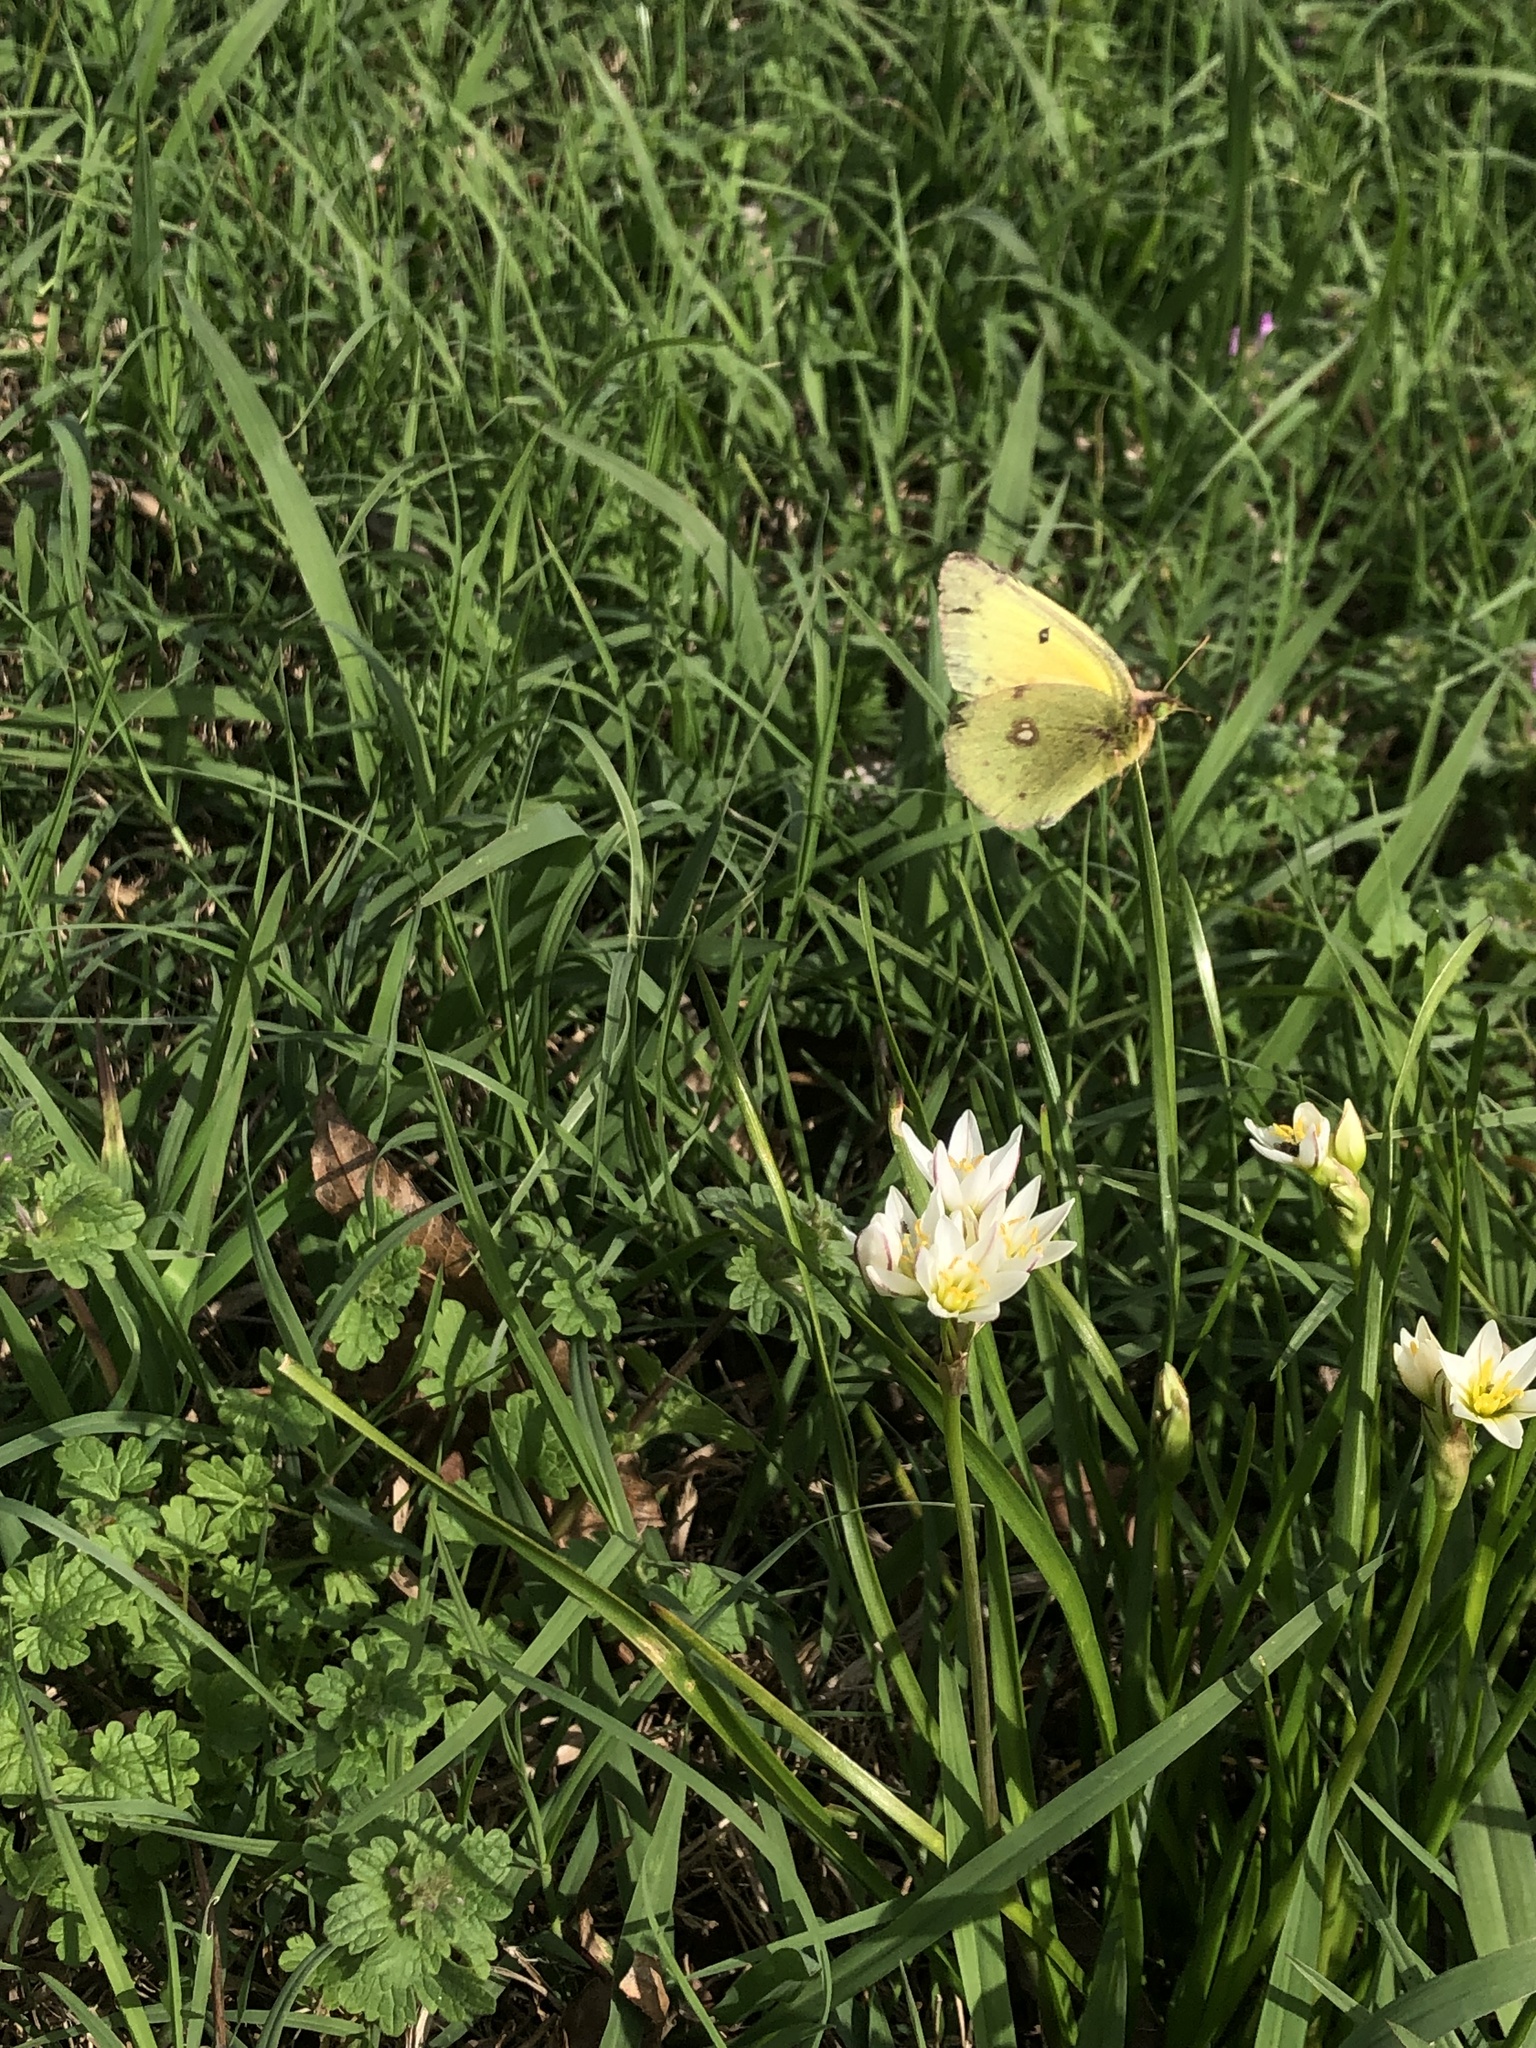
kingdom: Animalia
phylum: Arthropoda
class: Insecta
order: Lepidoptera
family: Pieridae
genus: Colias
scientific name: Colias eurytheme
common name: Alfalfa butterfly
